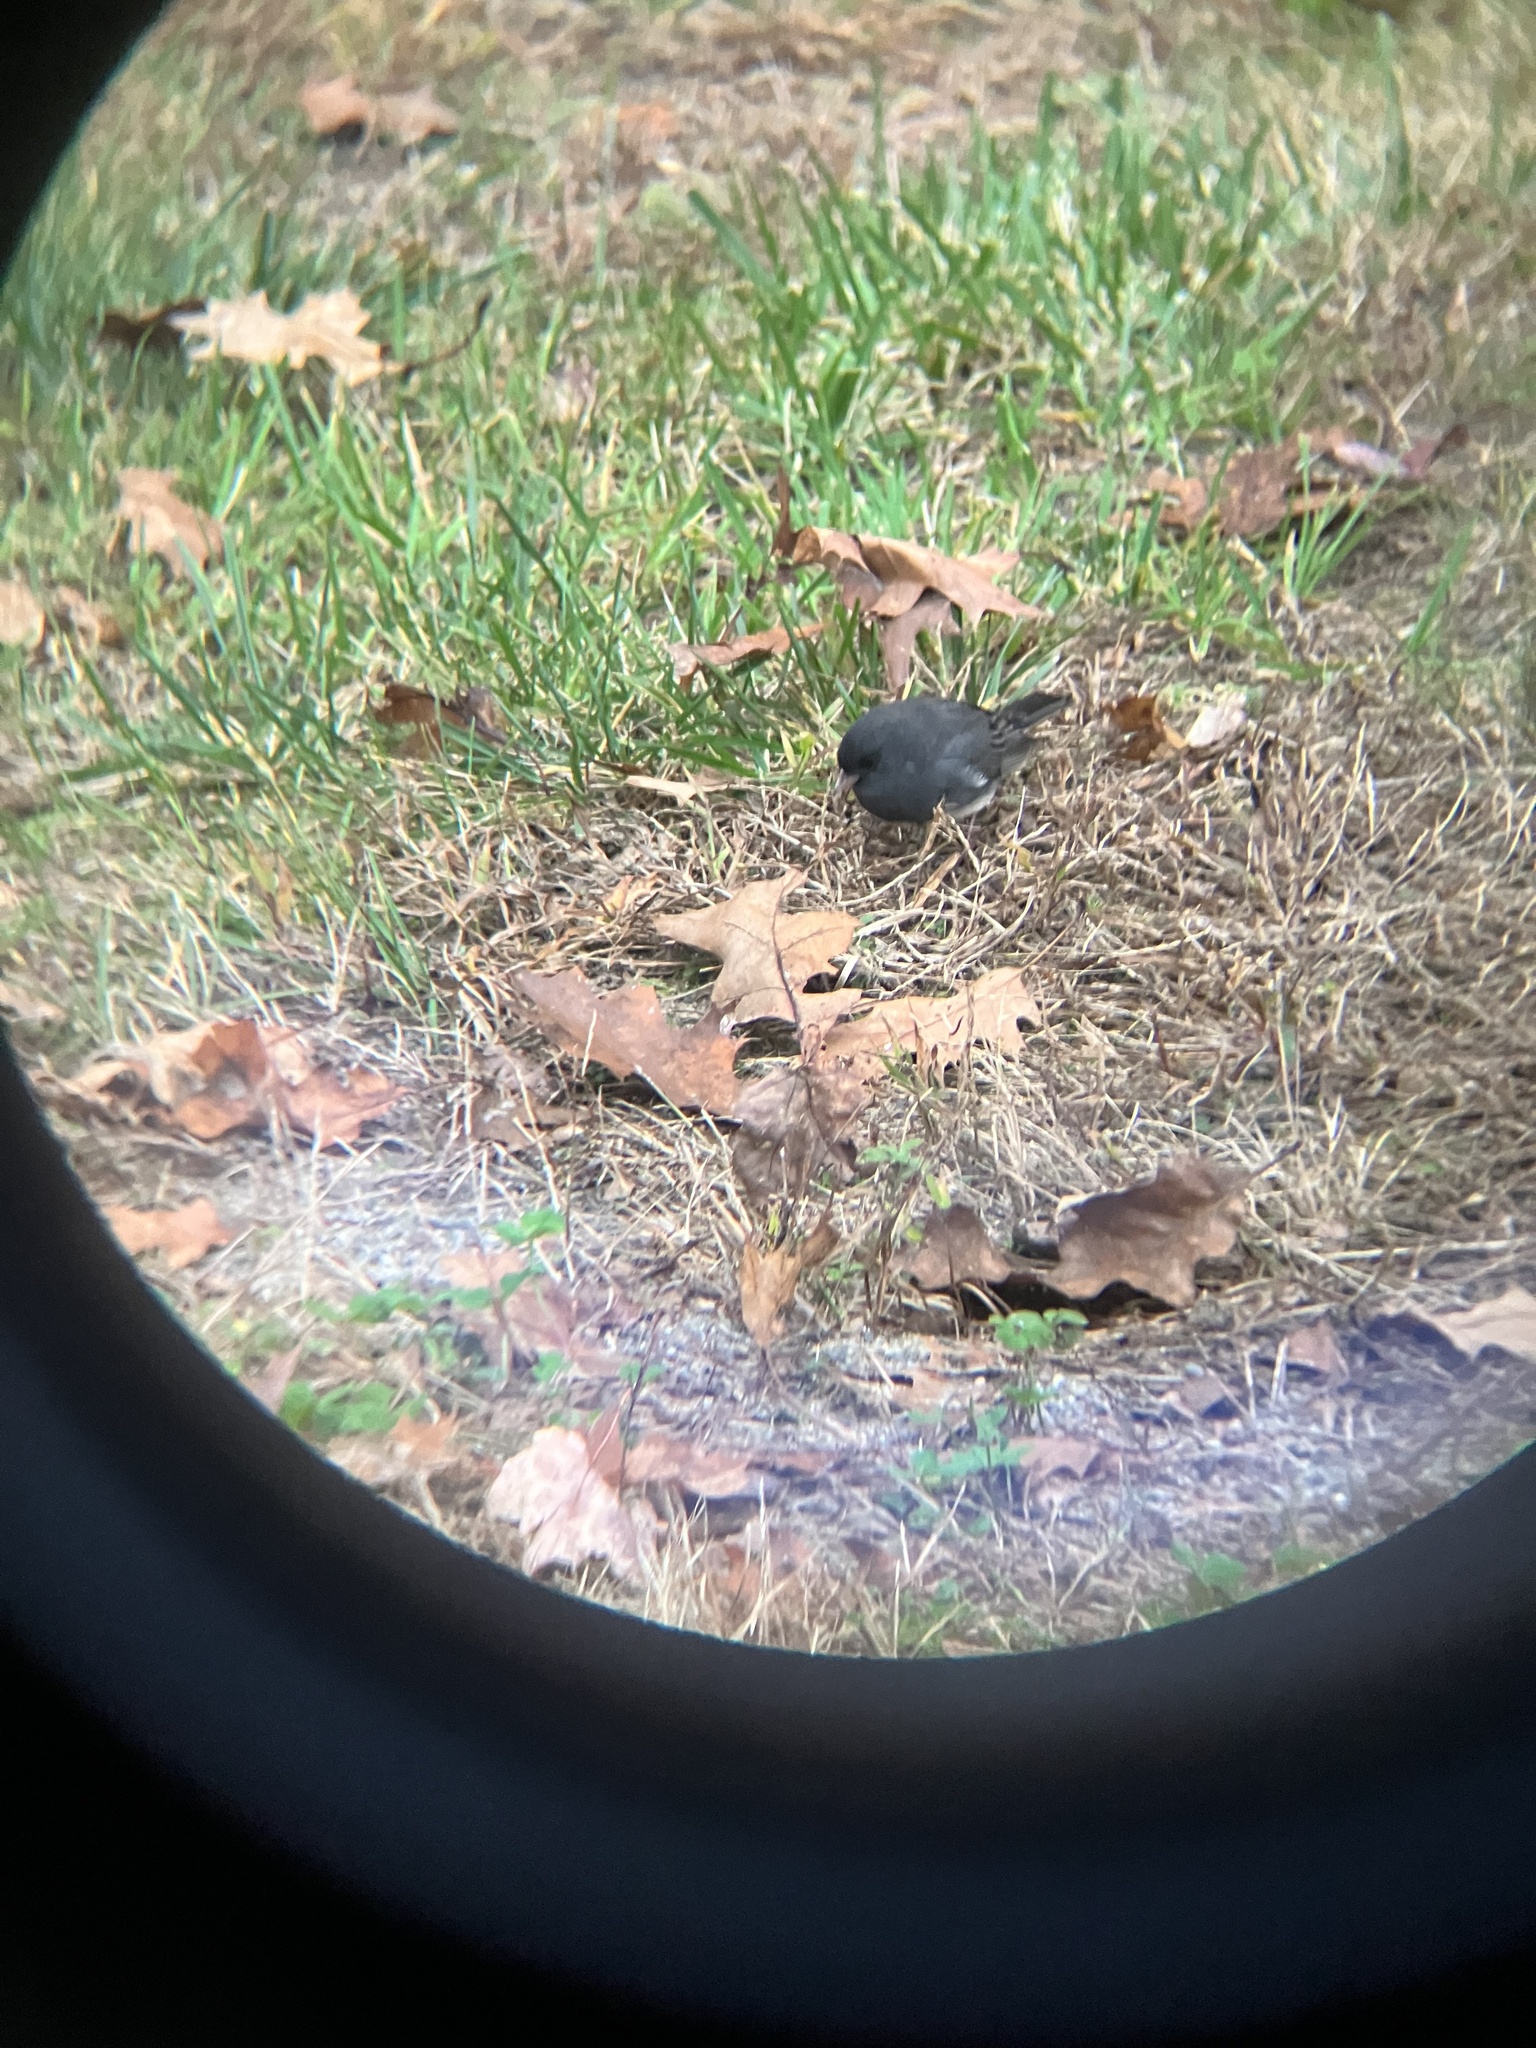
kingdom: Animalia
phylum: Chordata
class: Aves
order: Passeriformes
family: Passerellidae
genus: Junco
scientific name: Junco hyemalis
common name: Dark-eyed junco
